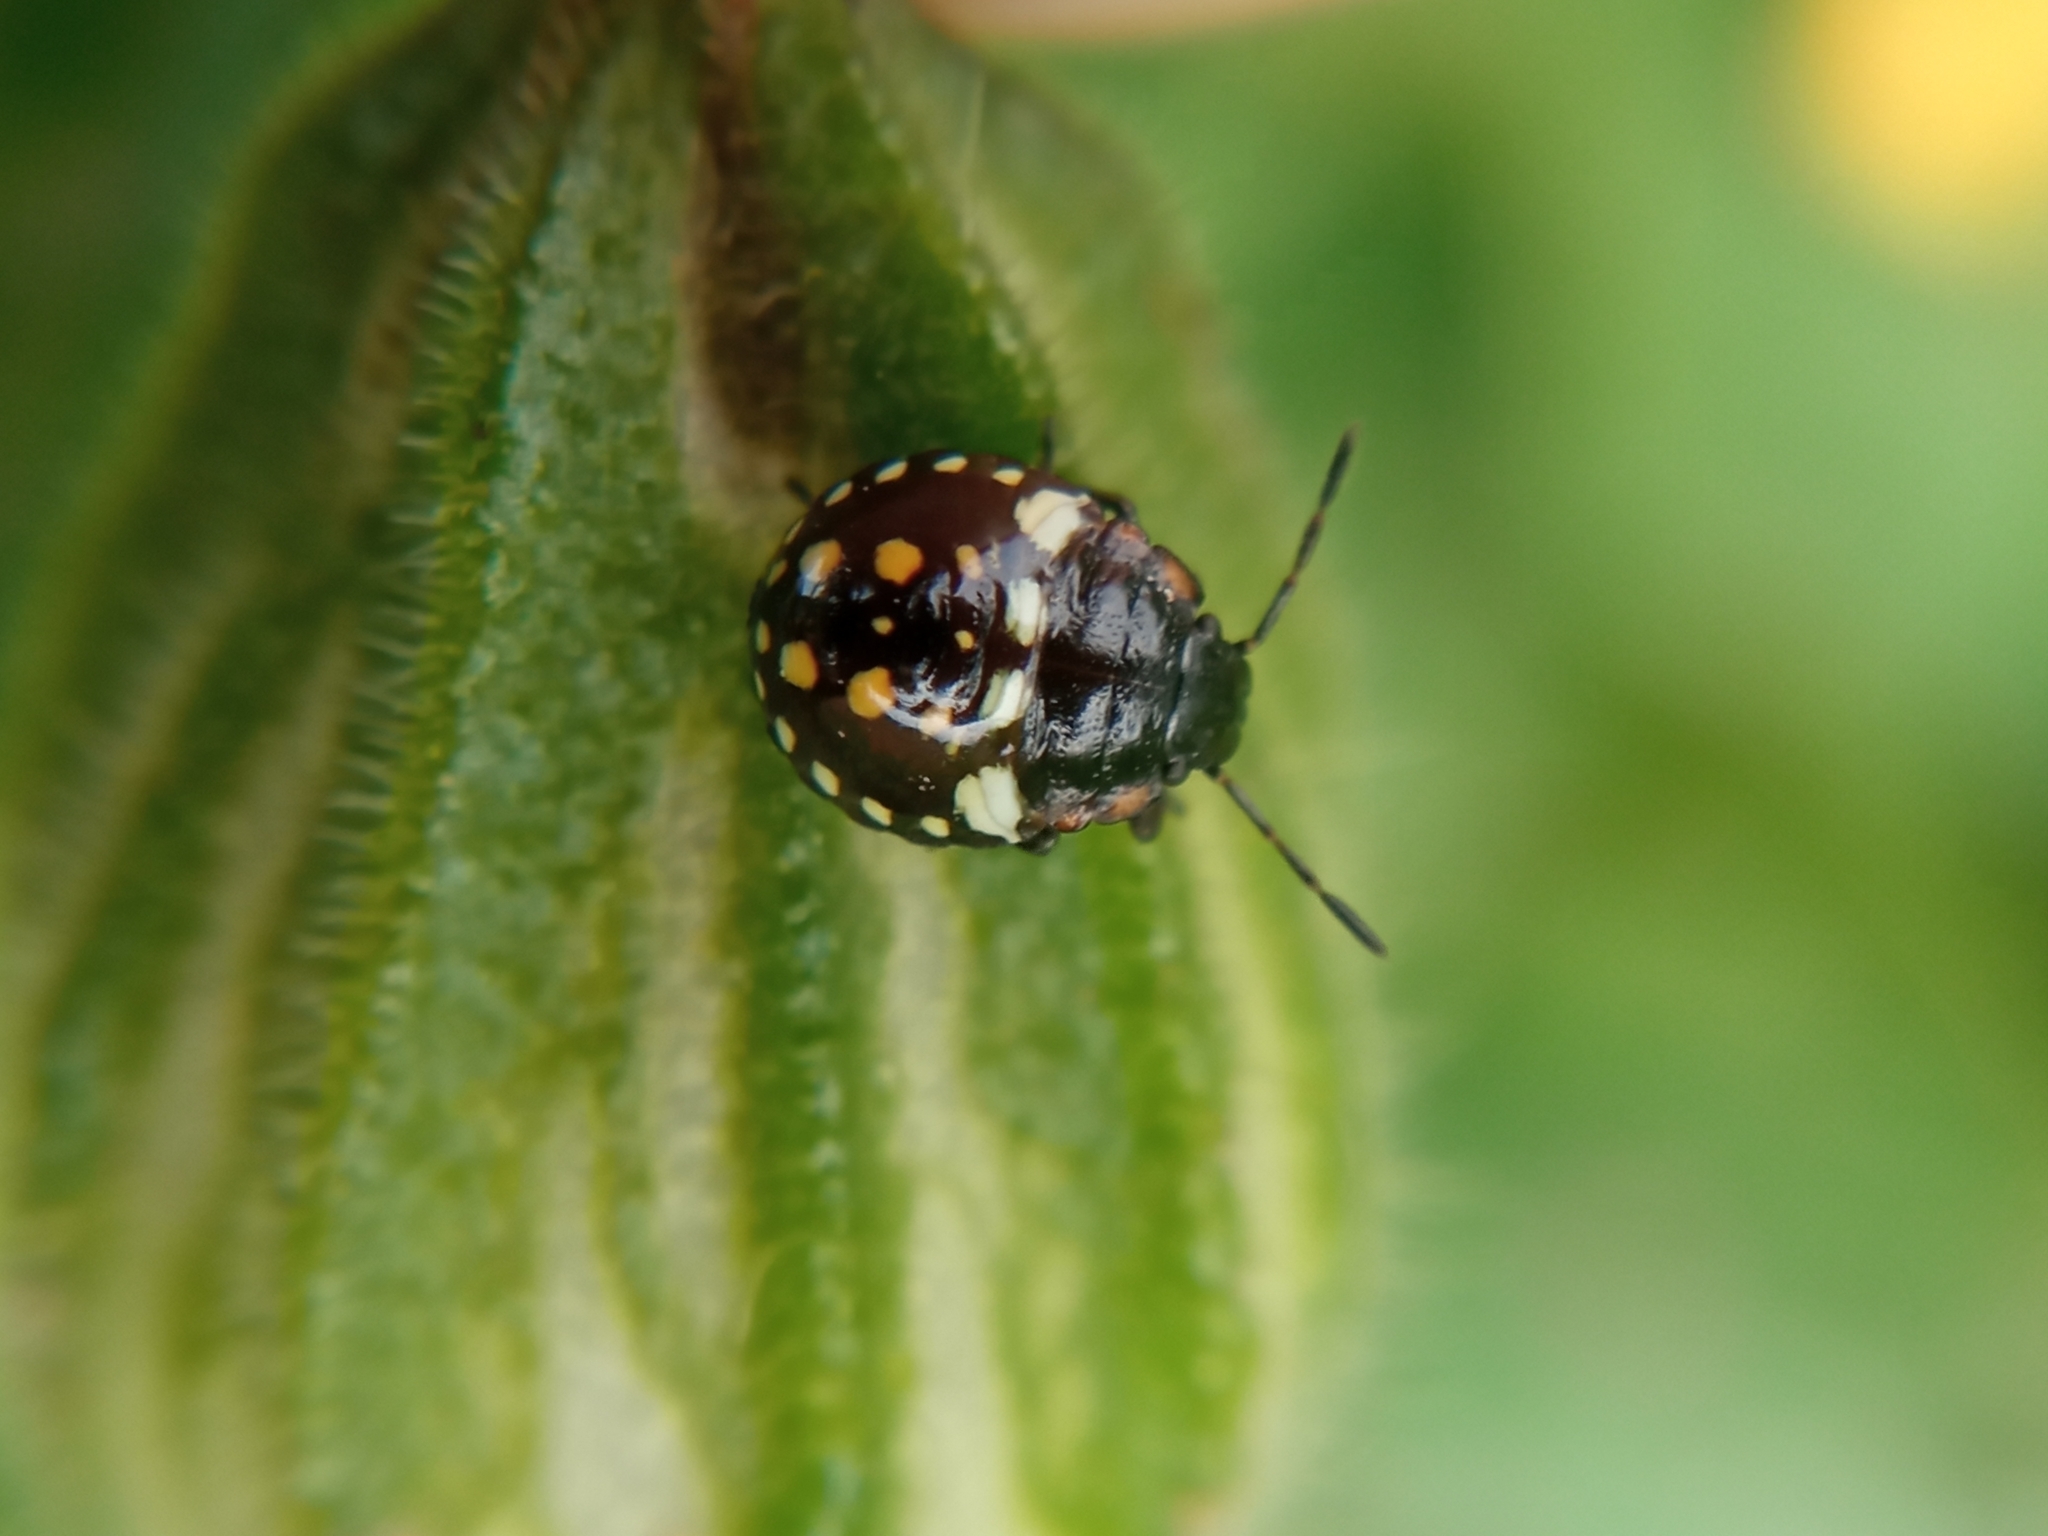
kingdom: Animalia
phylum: Arthropoda
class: Insecta
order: Hemiptera
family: Pentatomidae
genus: Nezara
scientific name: Nezara viridula
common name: Southern green stink bug
